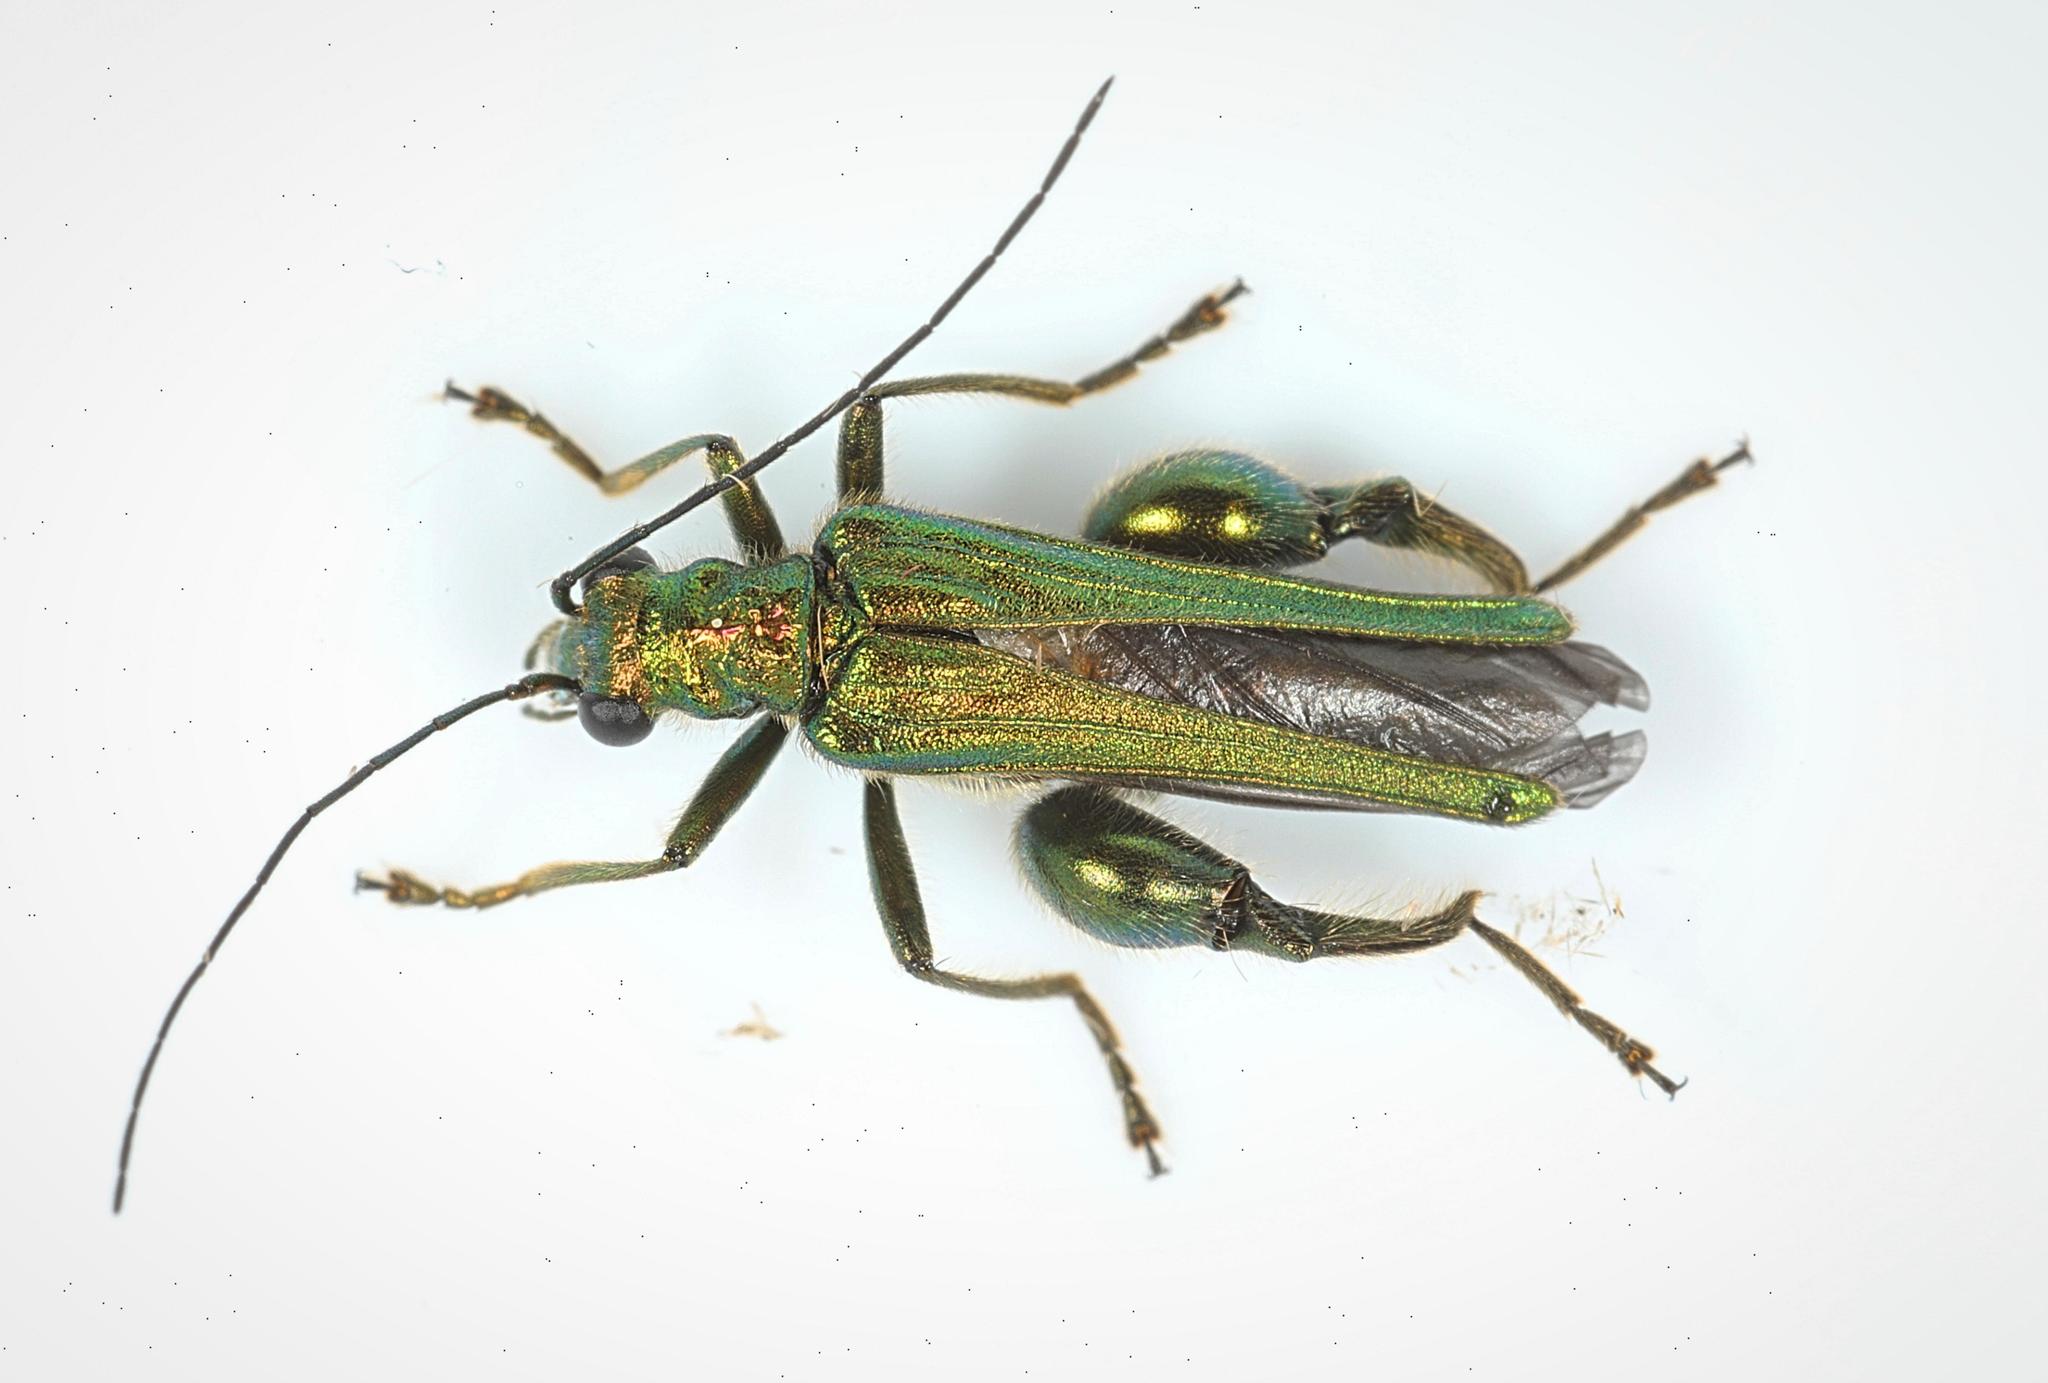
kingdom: Animalia
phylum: Arthropoda
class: Insecta
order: Coleoptera
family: Oedemeridae
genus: Oedemera
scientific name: Oedemera nobilis
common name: Swollen-thighed beetle
